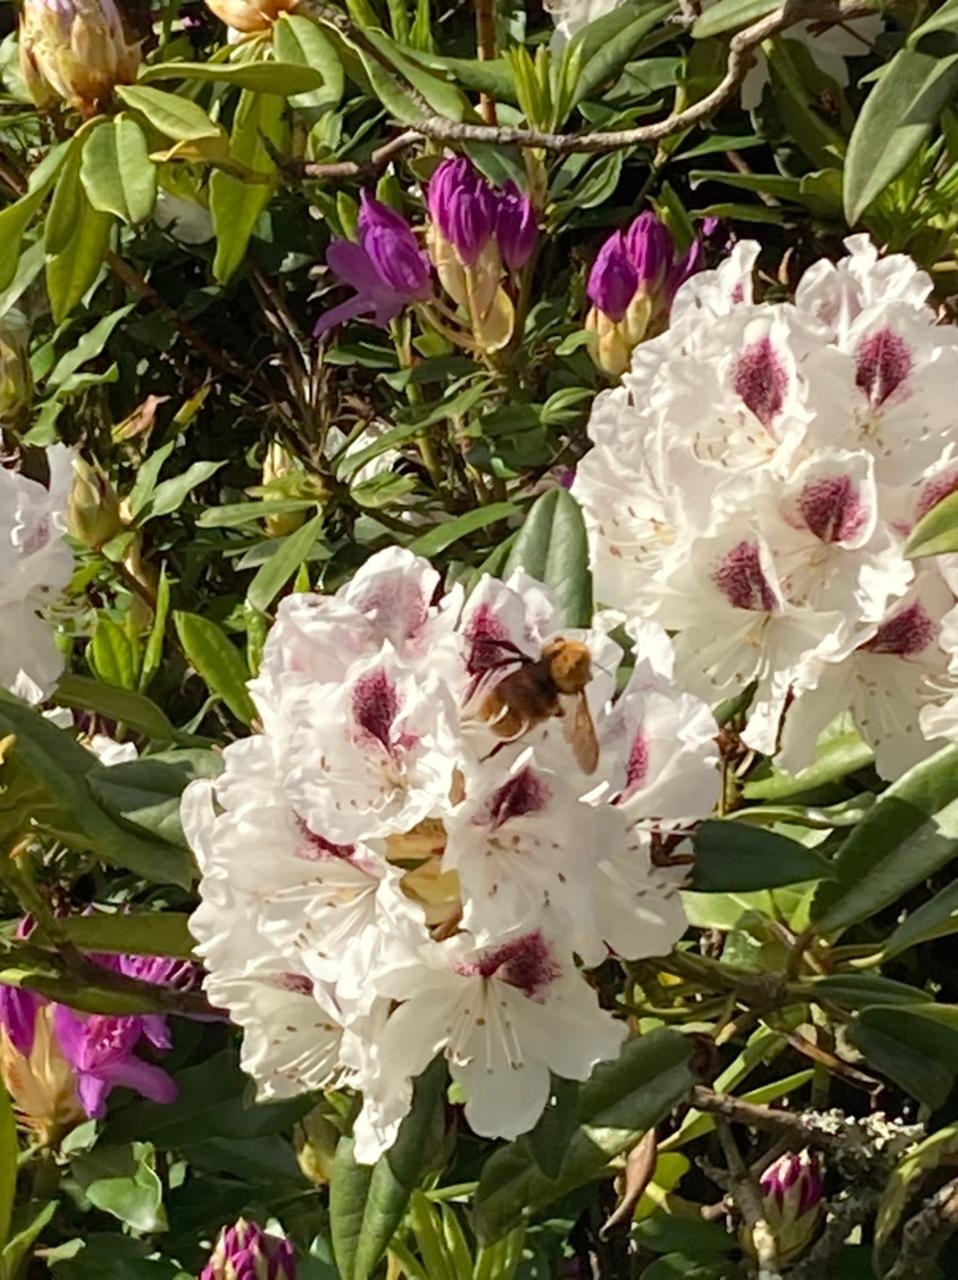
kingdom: Animalia
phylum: Arthropoda
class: Insecta
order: Hymenoptera
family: Apidae
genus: Bombus
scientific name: Bombus dahlbomii
